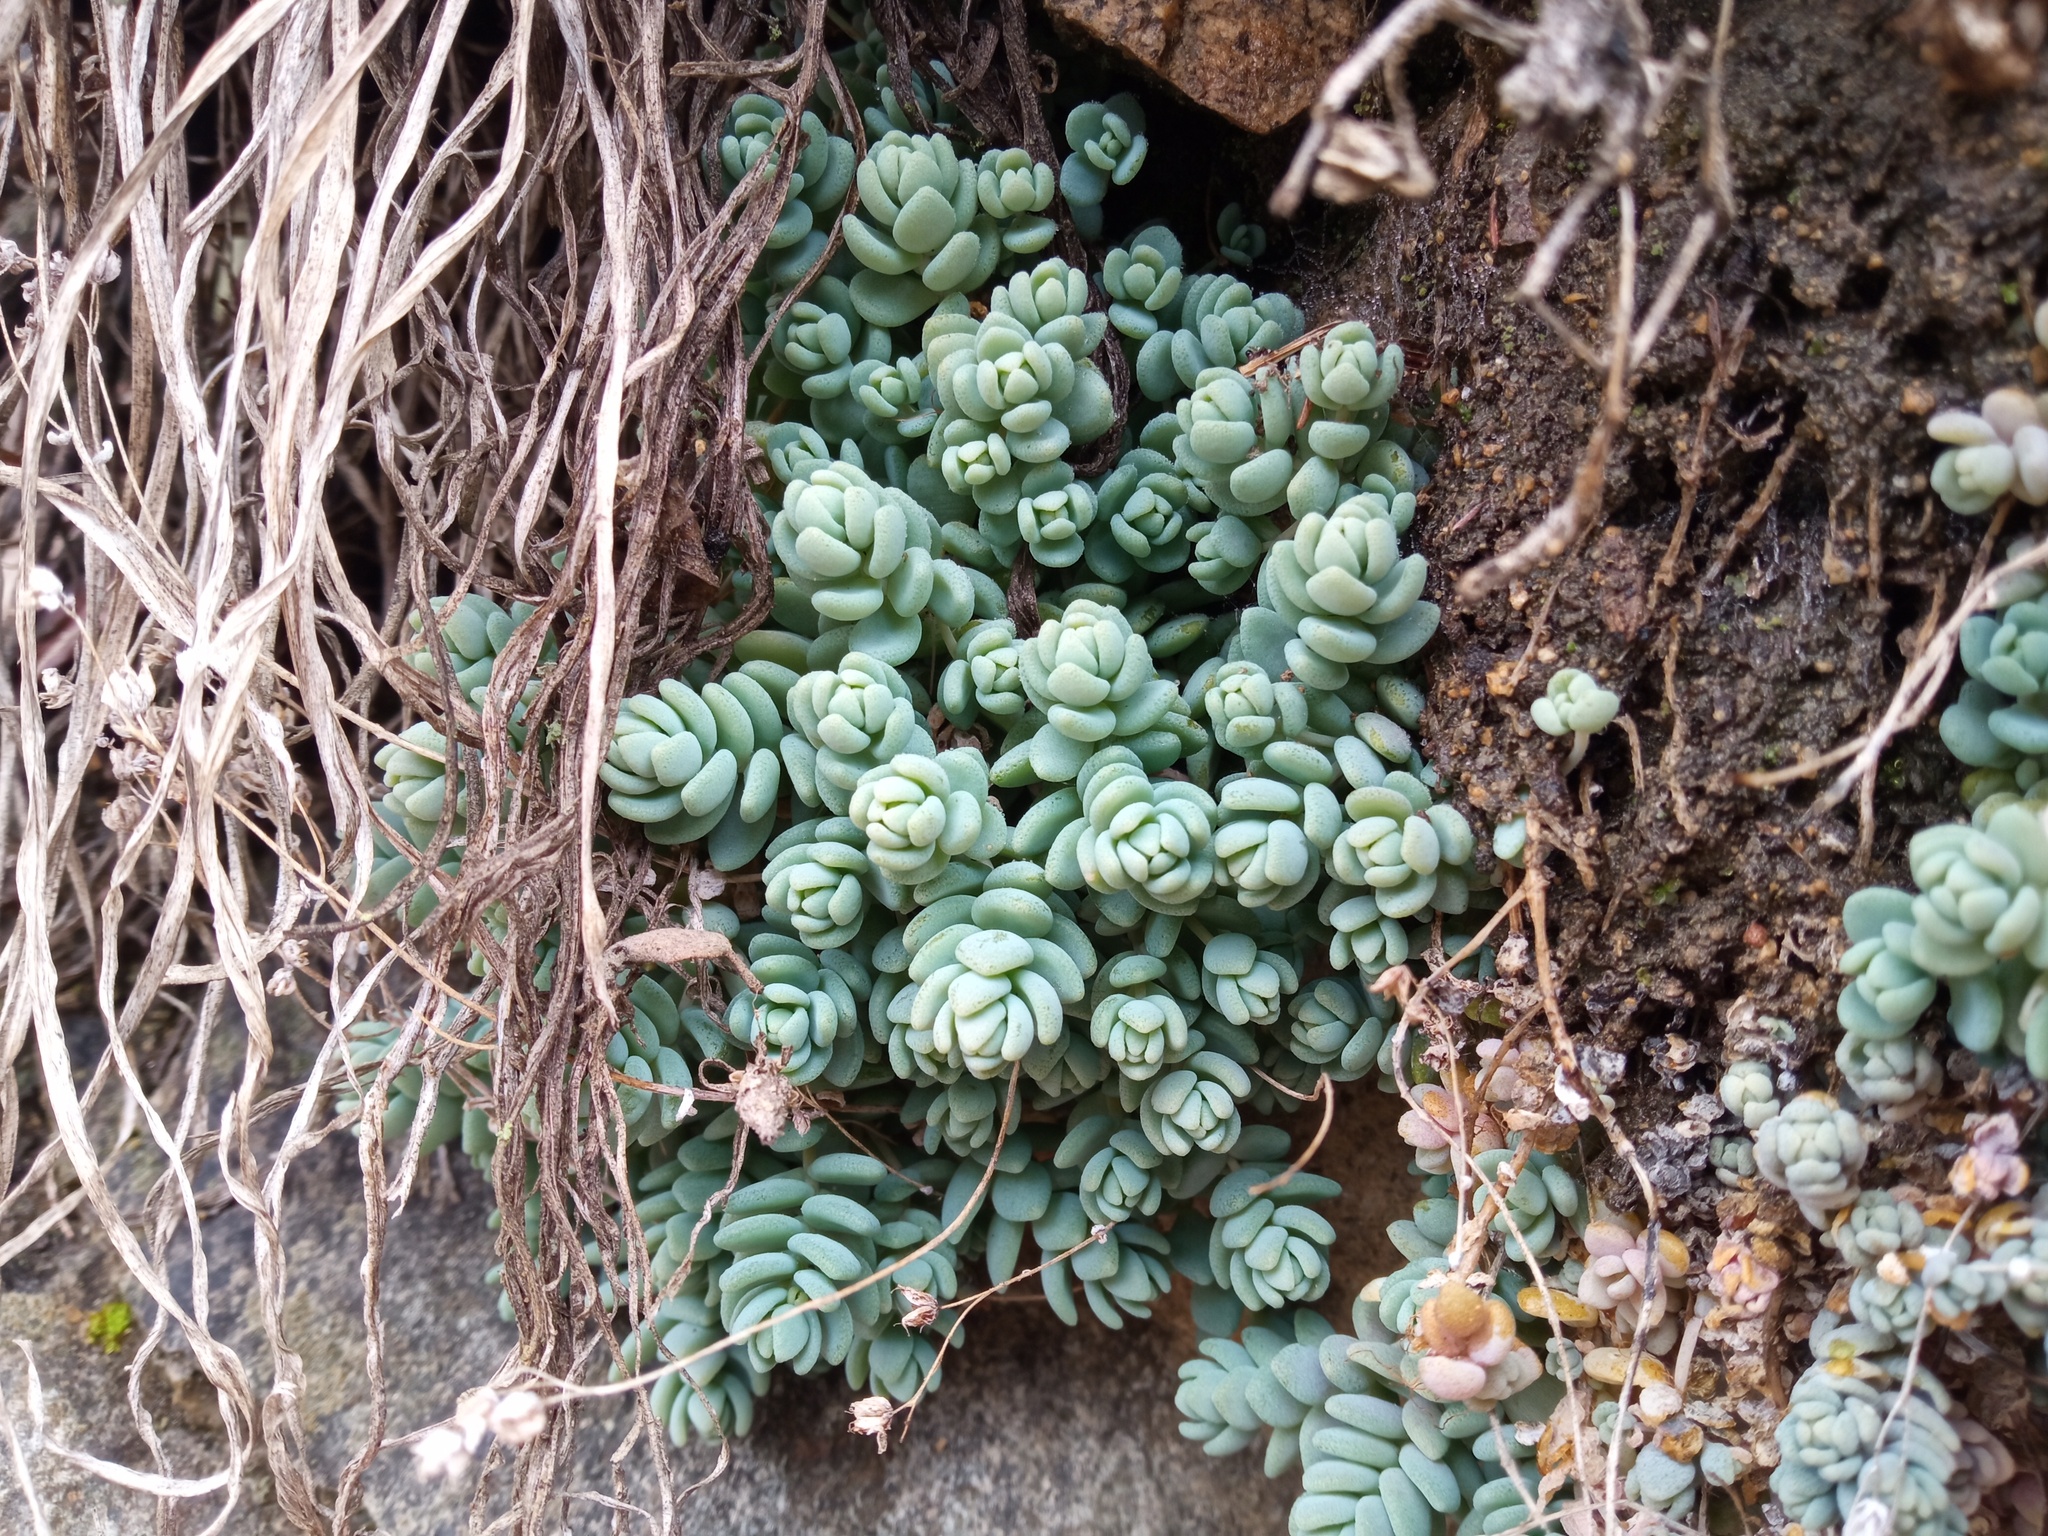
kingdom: Plantae
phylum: Tracheophyta
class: Magnoliopsida
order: Saxifragales
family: Crassulaceae
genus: Sedum
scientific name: Sedum dasyphyllum
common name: Thick-leaf stonecrop
